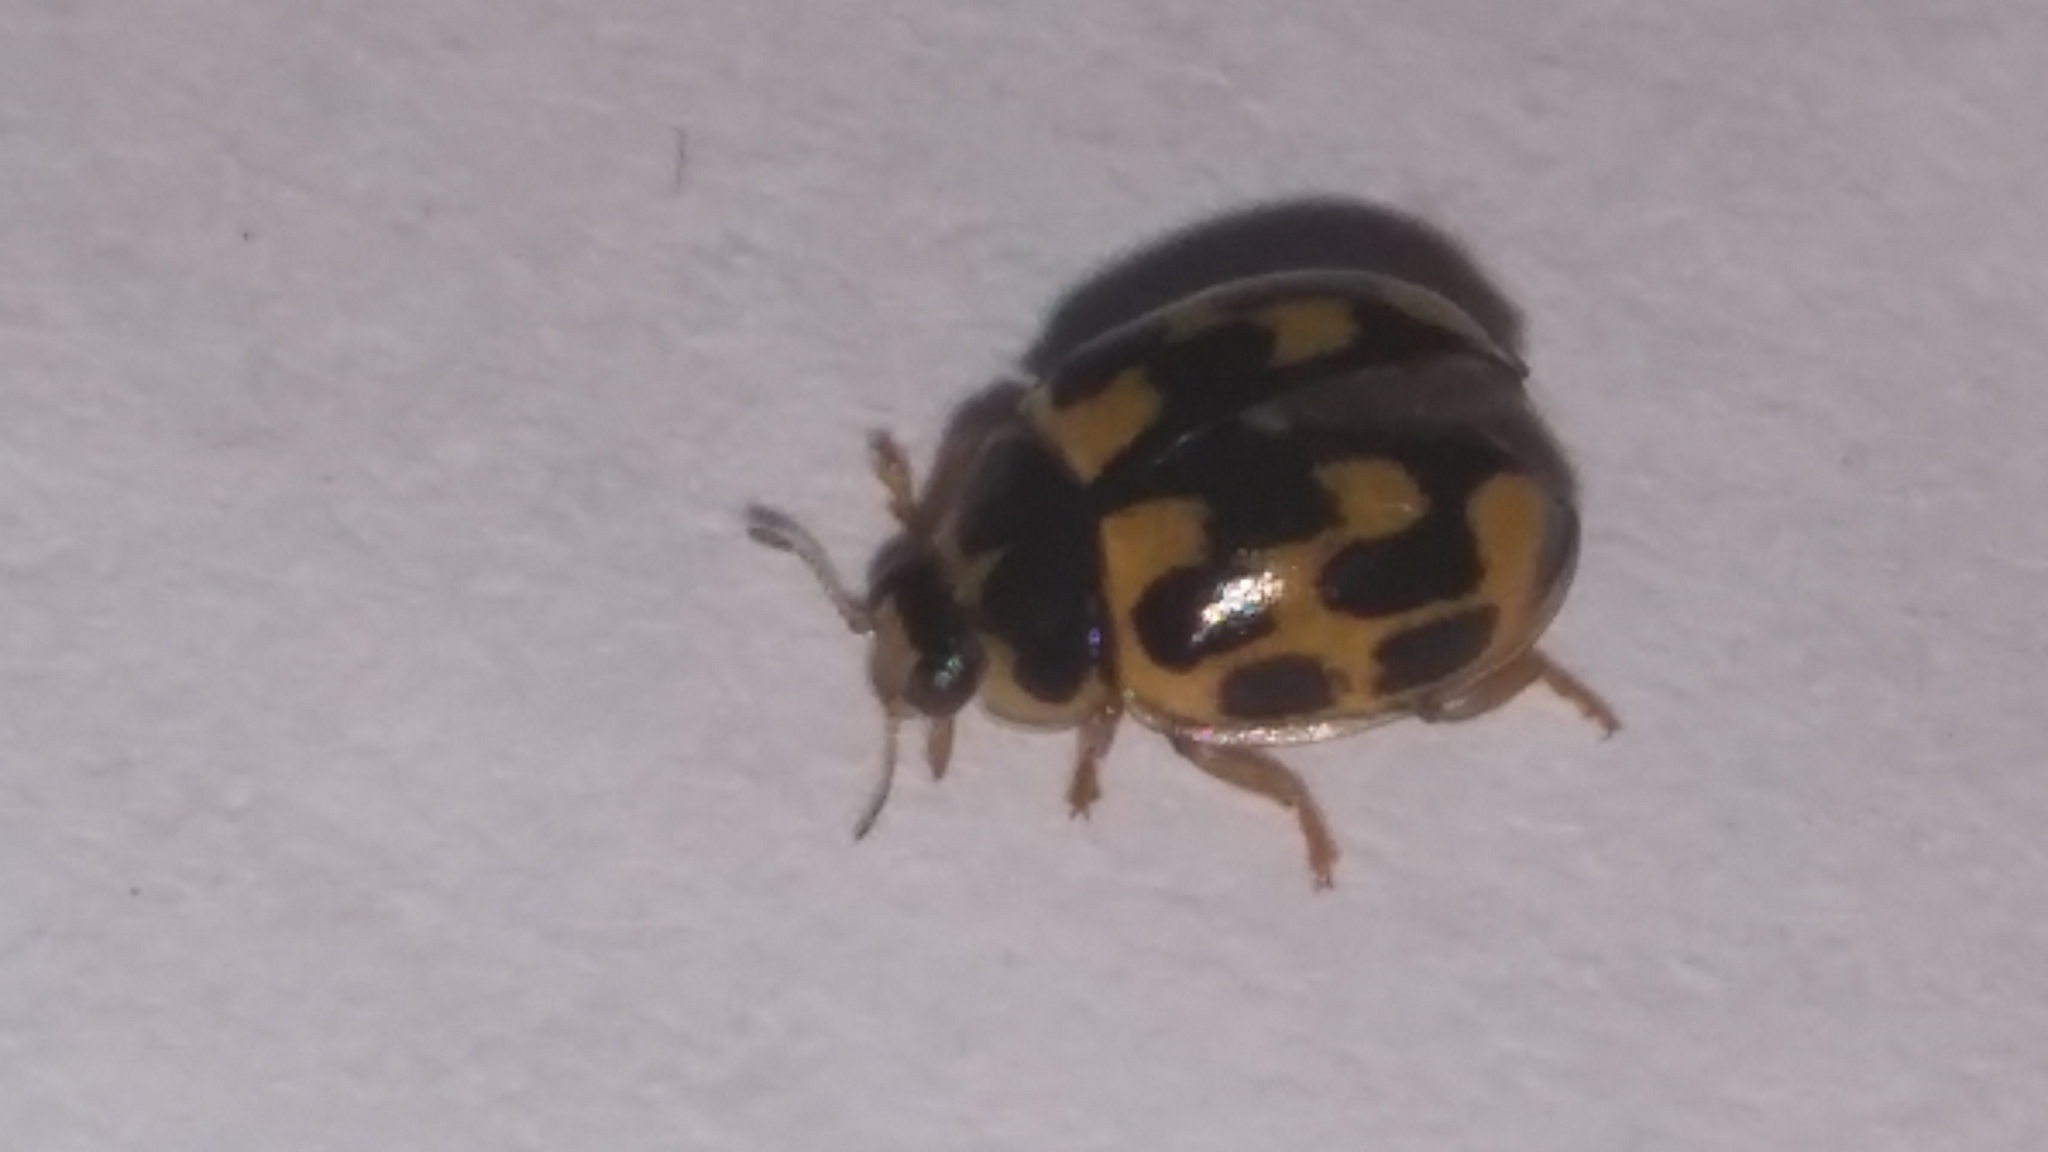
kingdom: Animalia
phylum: Arthropoda
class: Insecta
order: Coleoptera
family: Coccinellidae
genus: Propylaea
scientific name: Propylaea quatuordecimpunctata
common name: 14-spotted ladybird beetle
